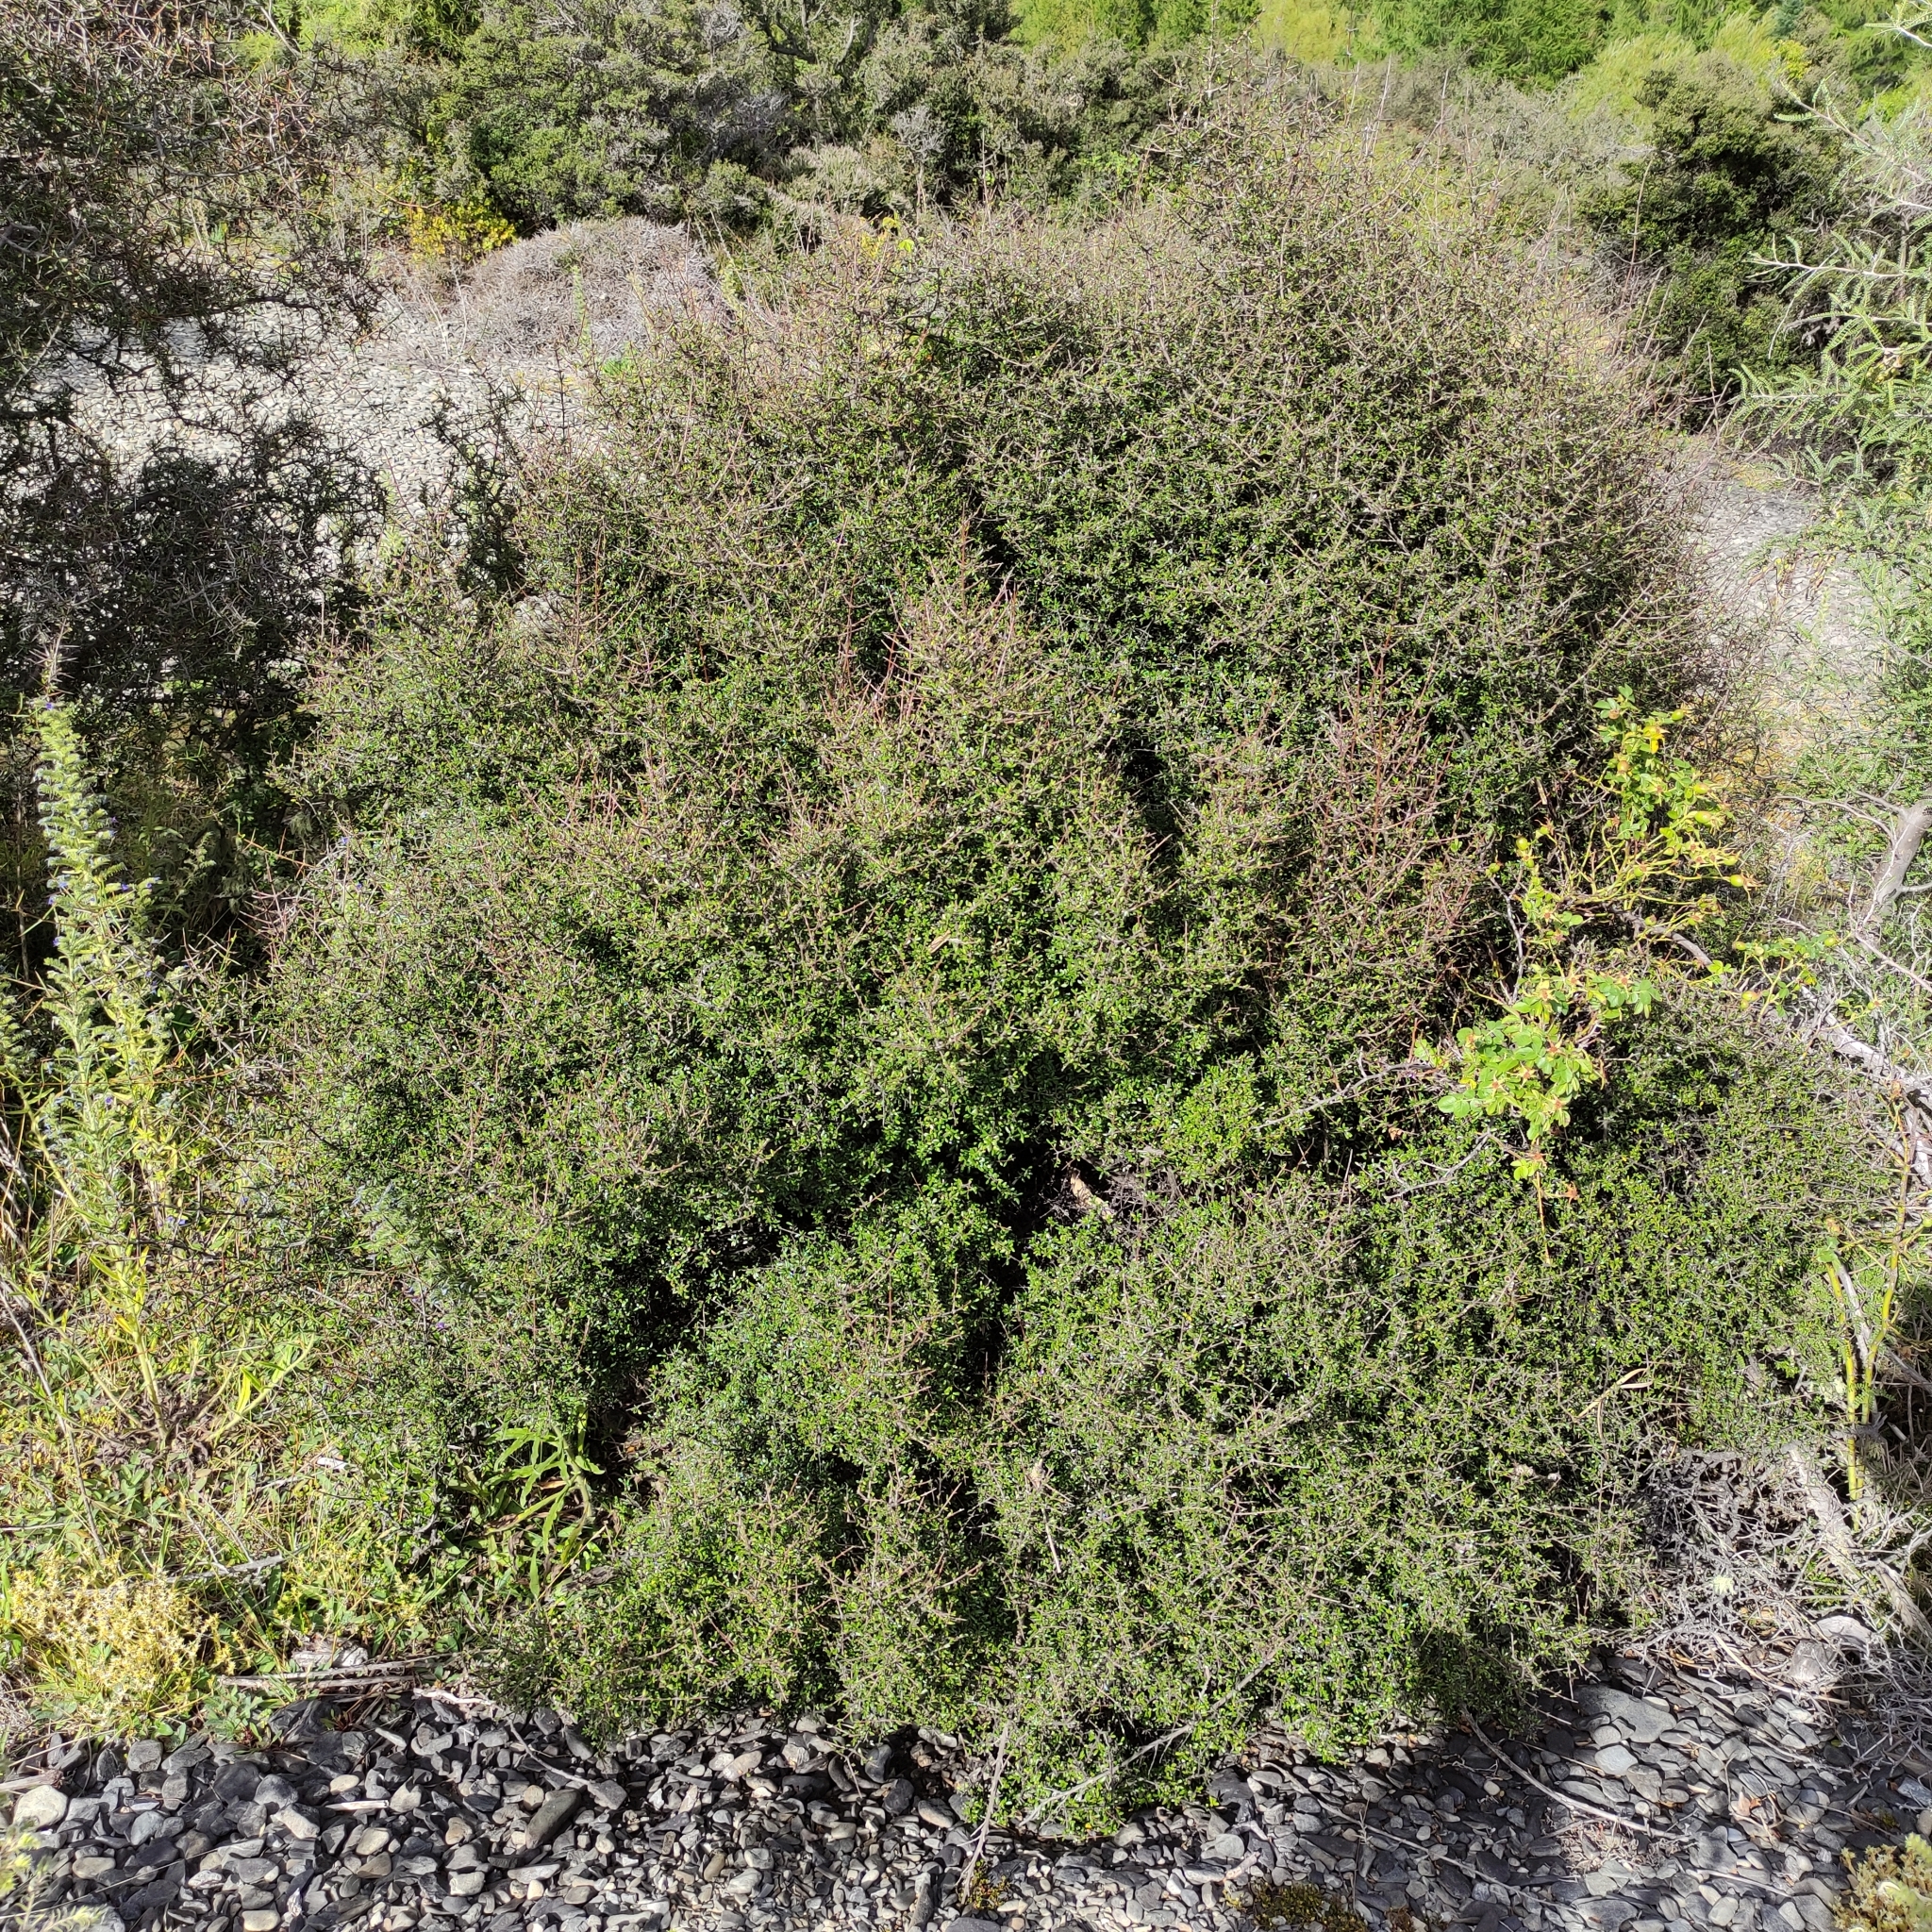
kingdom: Plantae
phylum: Tracheophyta
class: Magnoliopsida
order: Gentianales
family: Rubiaceae
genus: Coprosma
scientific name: Coprosma propinqua
